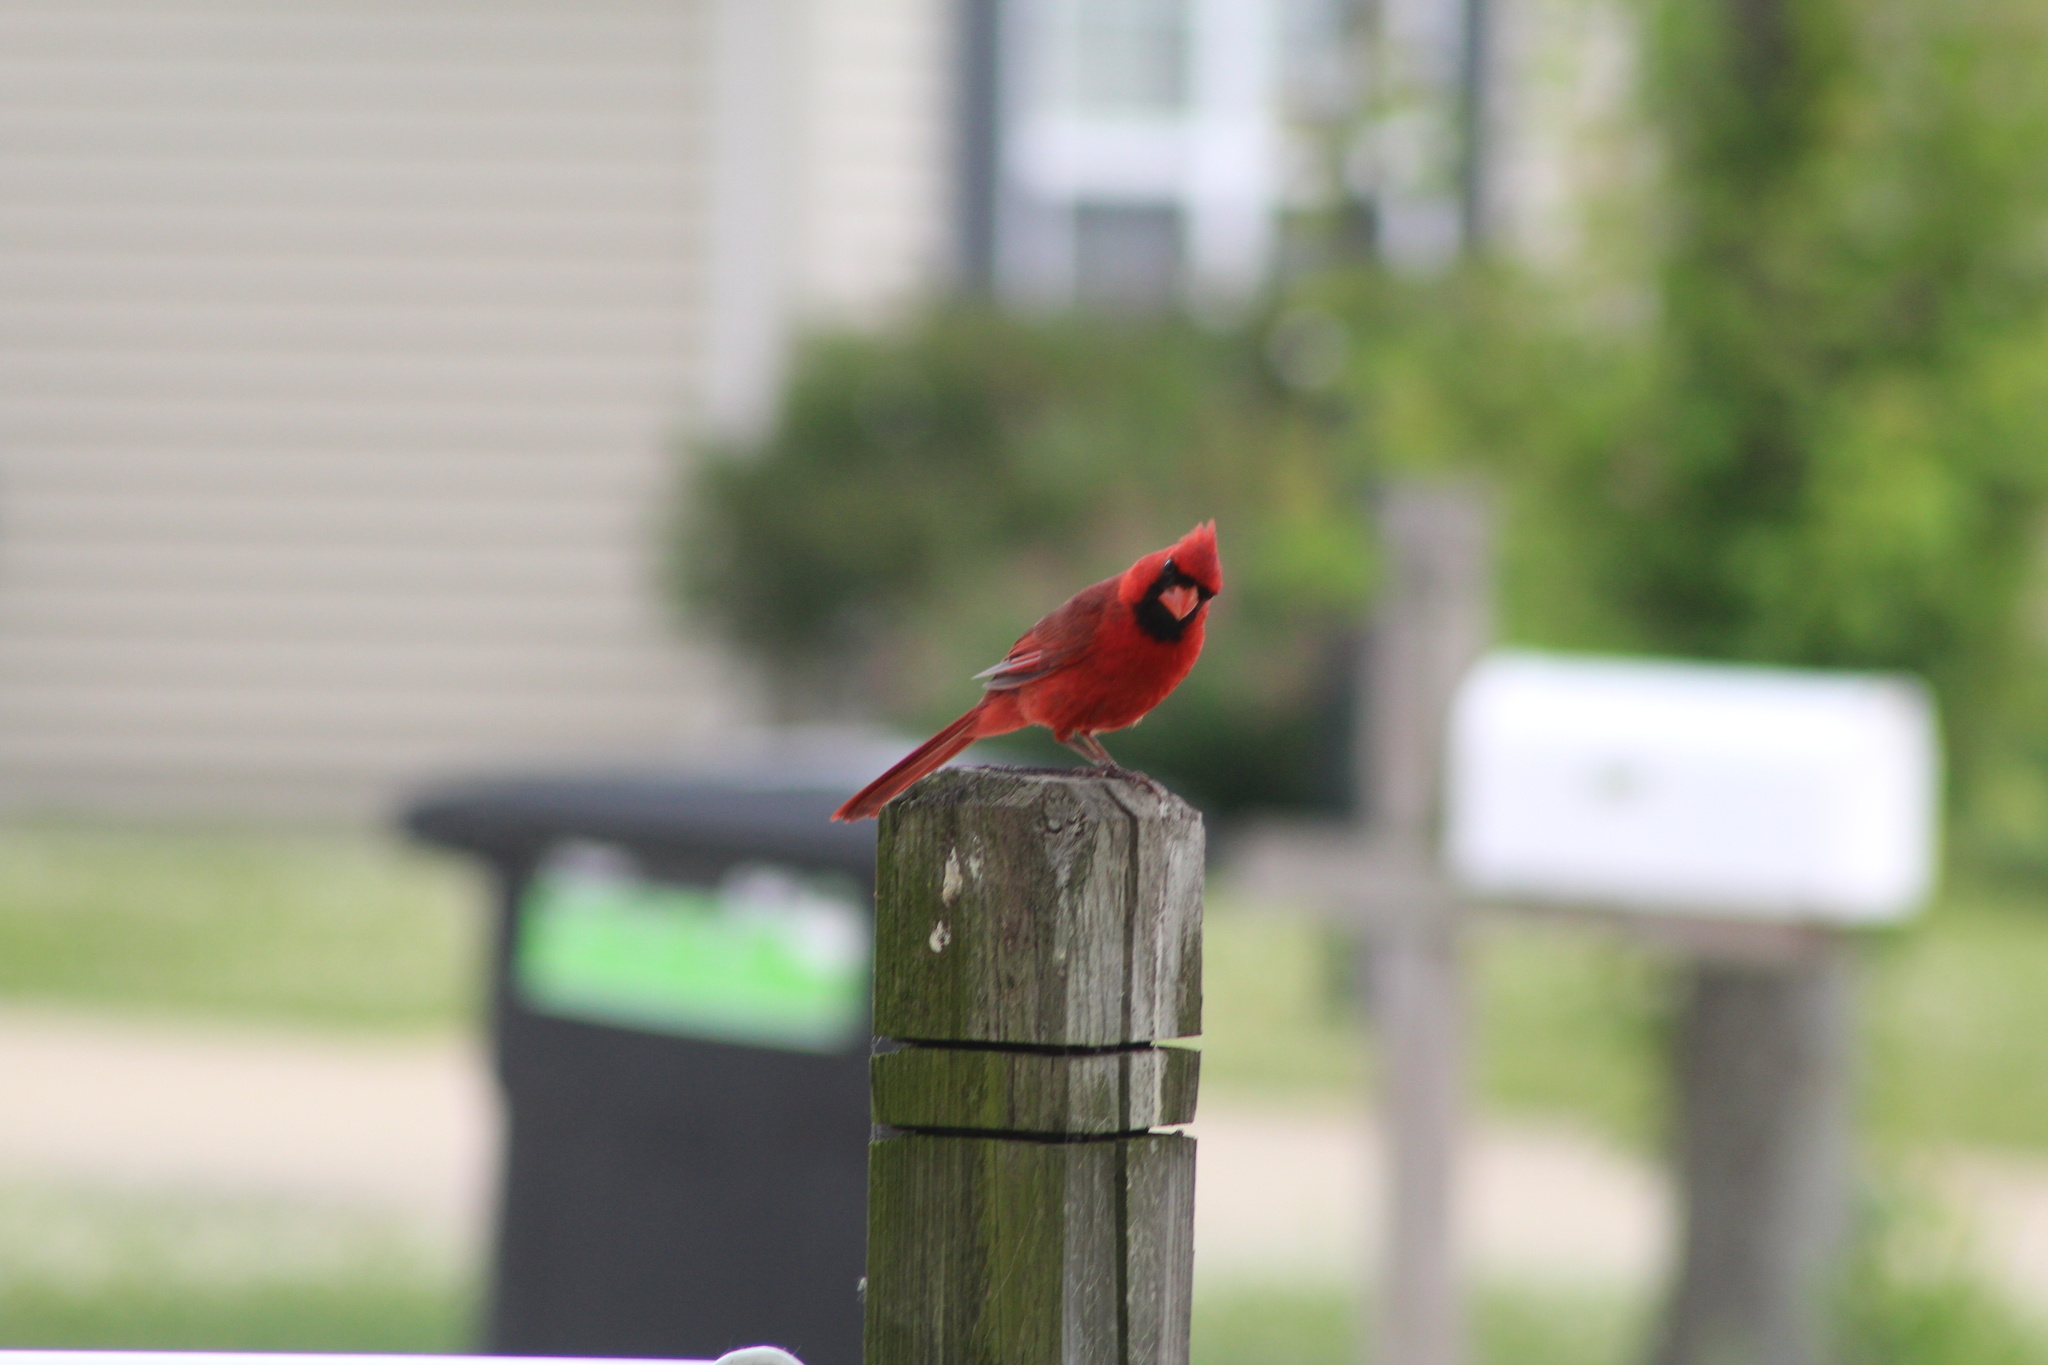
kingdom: Animalia
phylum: Chordata
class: Aves
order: Passeriformes
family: Cardinalidae
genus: Cardinalis
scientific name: Cardinalis cardinalis
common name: Northern cardinal
